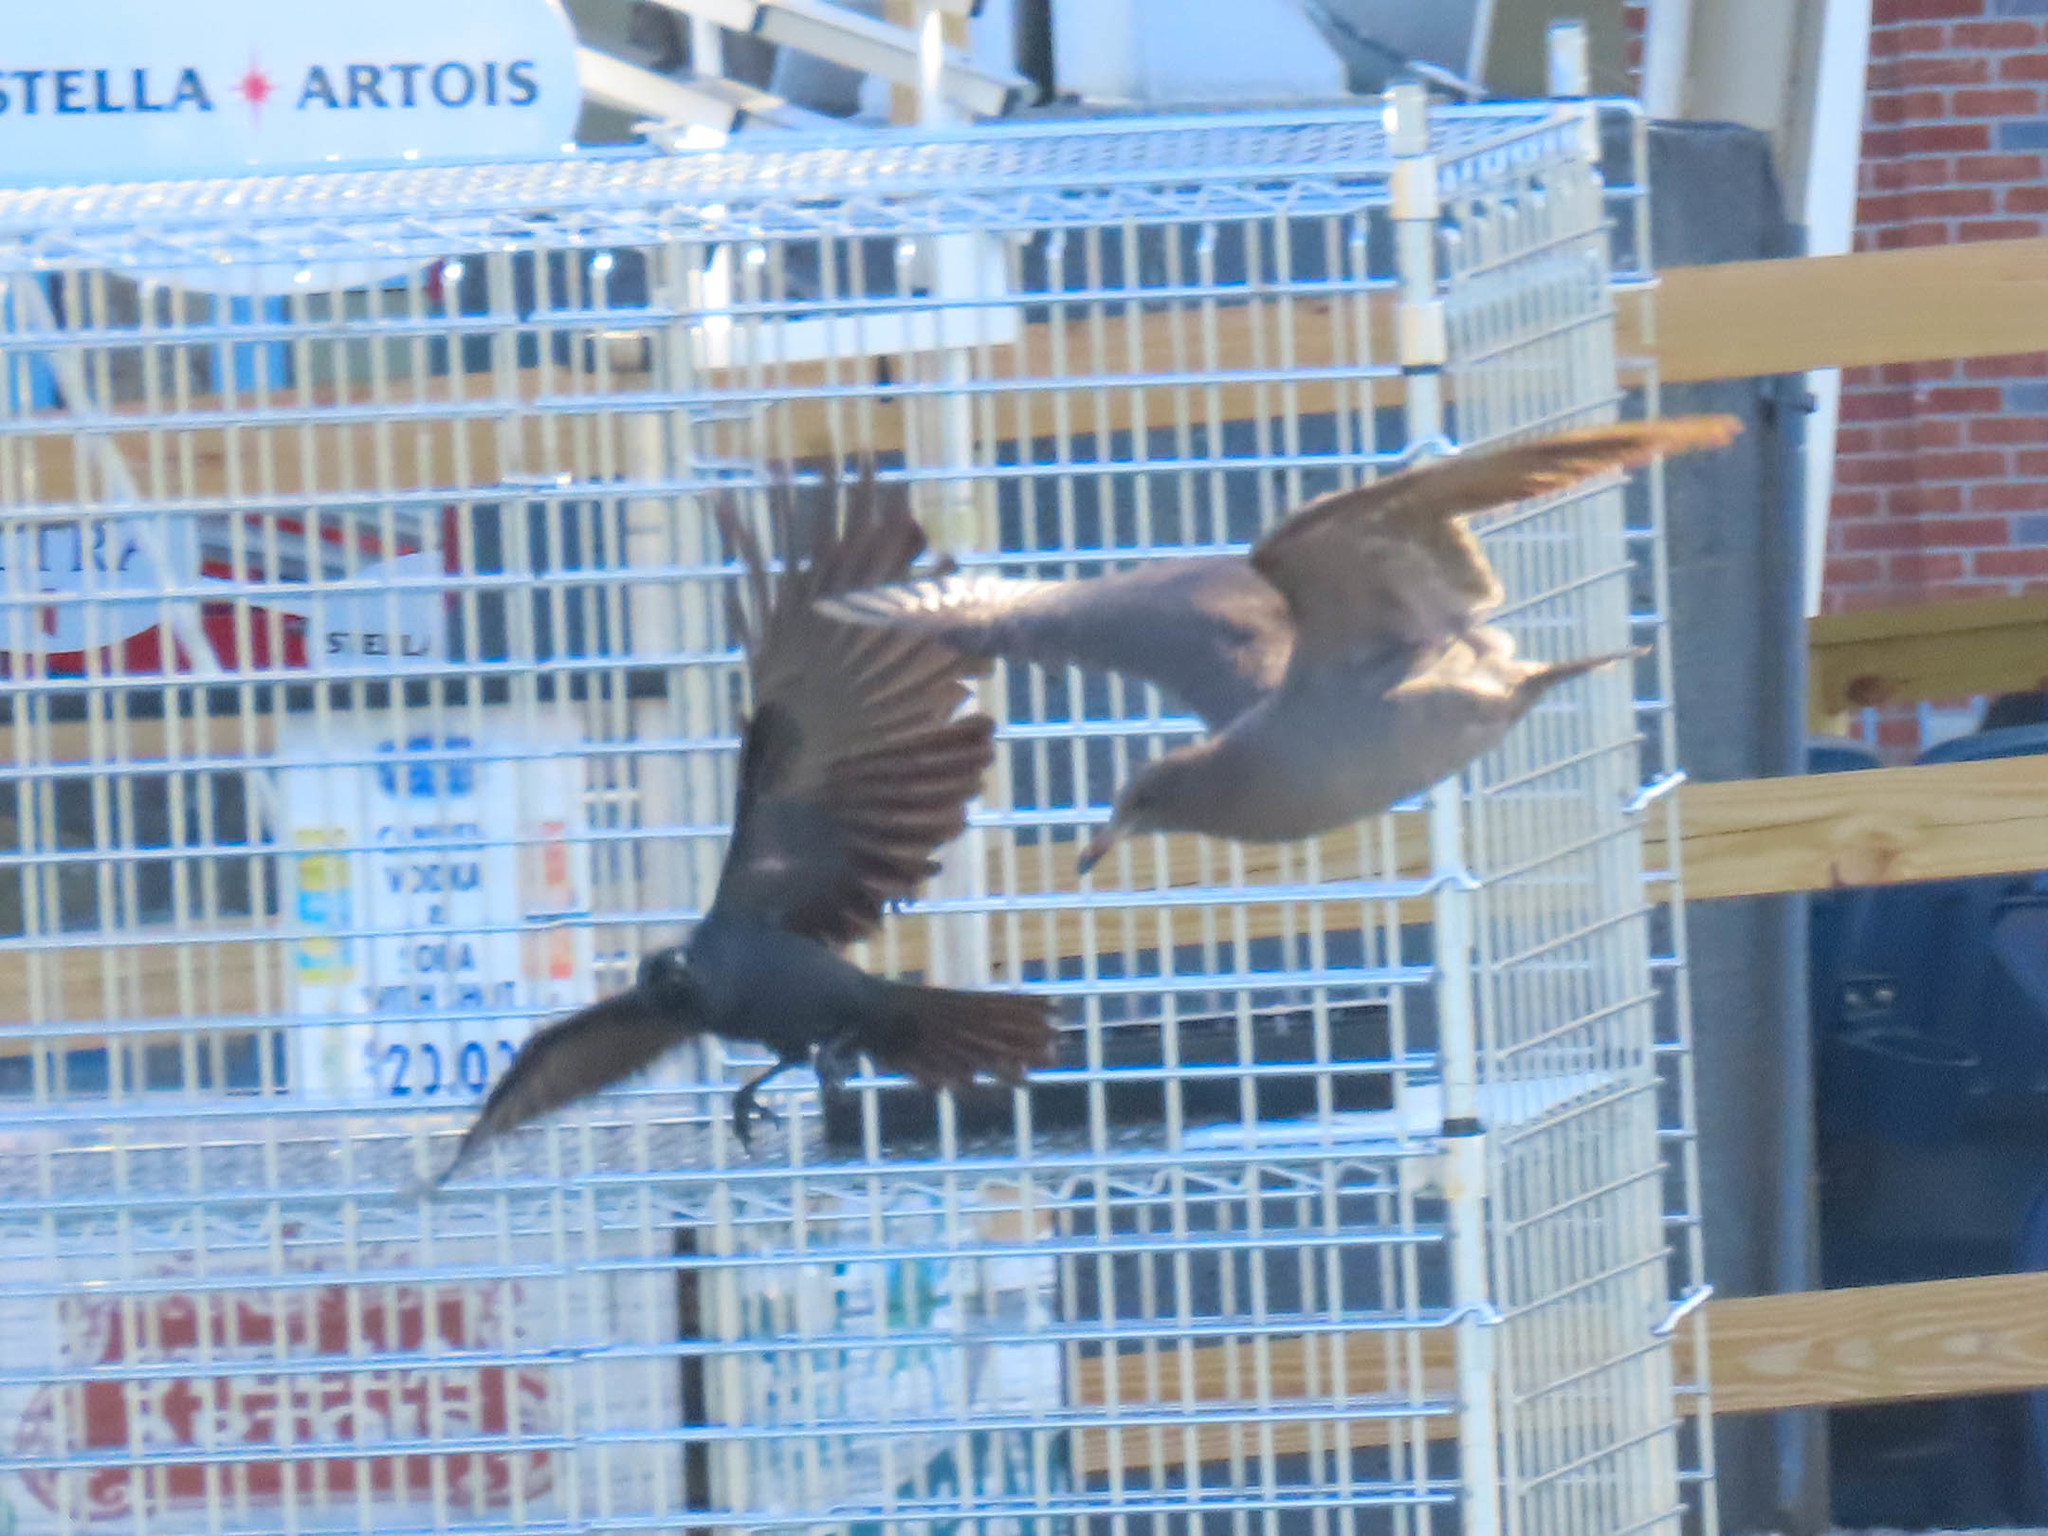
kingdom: Animalia
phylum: Chordata
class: Aves
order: Passeriformes
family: Corvidae
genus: Corvus
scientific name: Corvus ossifragus
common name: Fish crow
